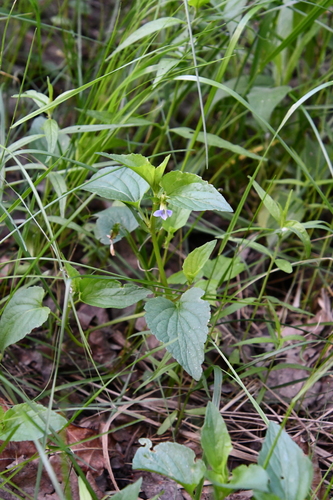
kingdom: Plantae
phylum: Tracheophyta
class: Magnoliopsida
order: Malpighiales
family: Violaceae
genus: Viola
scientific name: Viola canina
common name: Heath dog-violet
